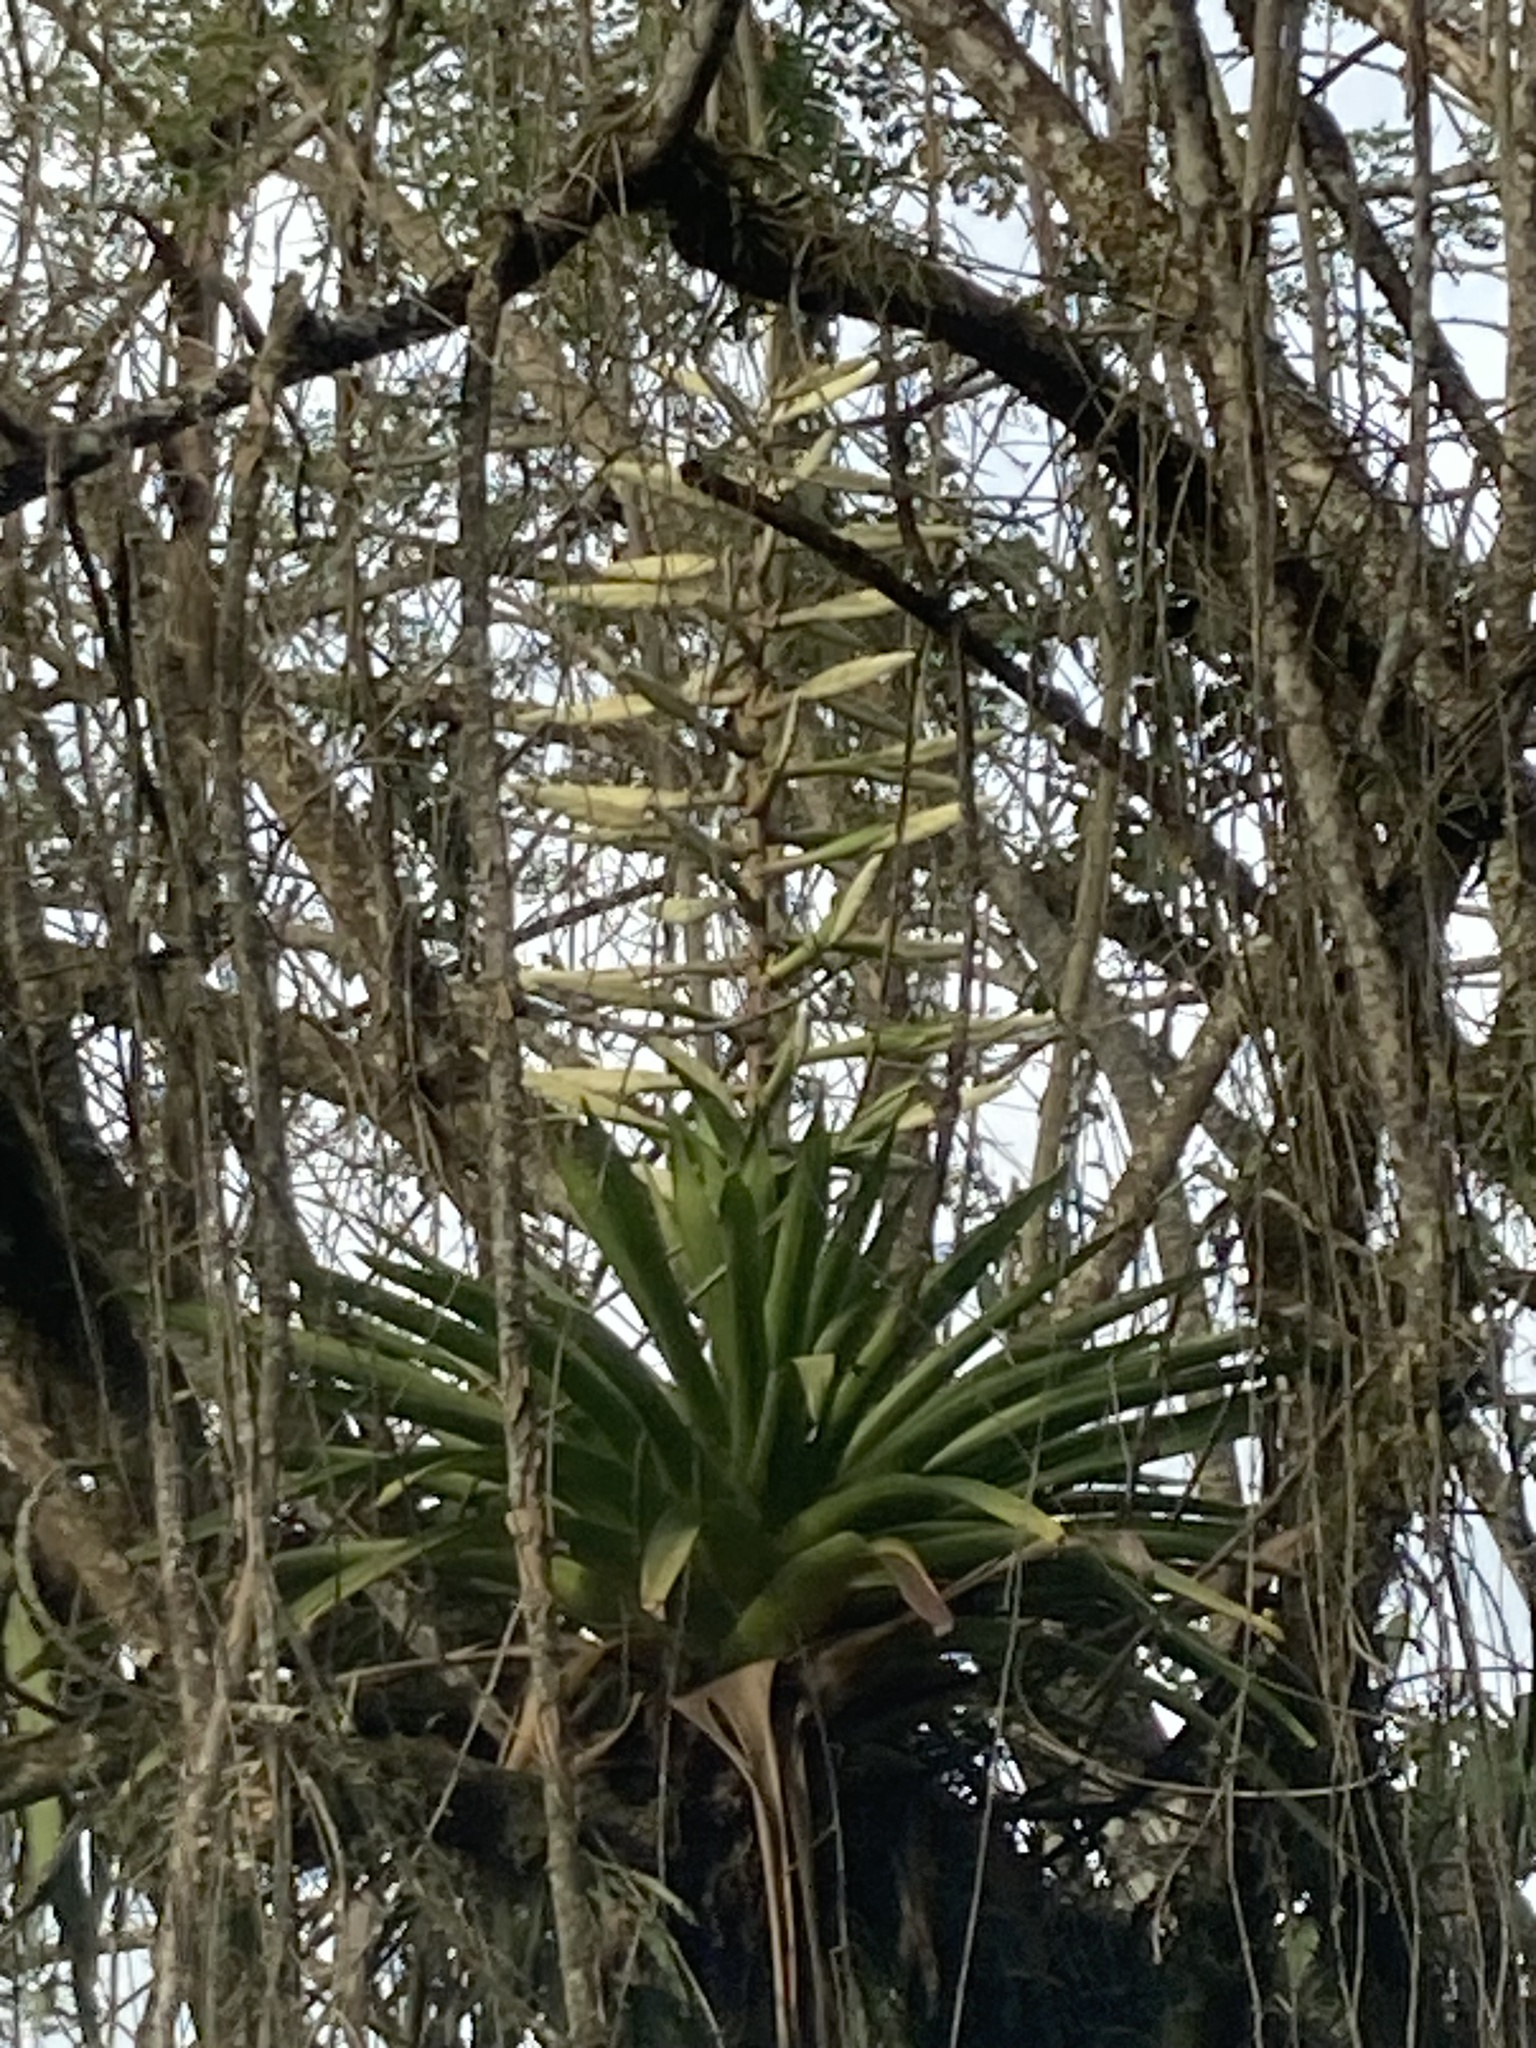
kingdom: Plantae
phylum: Tracheophyta
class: Liliopsida
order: Poales
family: Bromeliaceae
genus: Tillandsia
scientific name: Tillandsia fendleri
